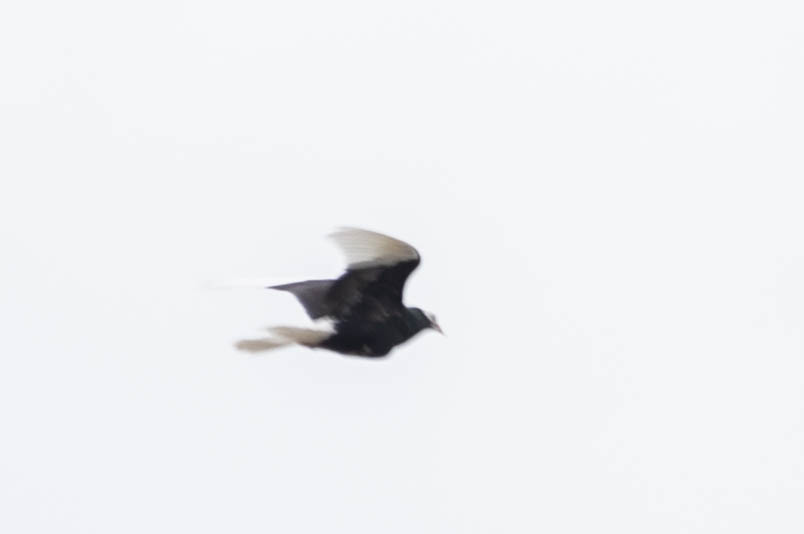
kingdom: Animalia
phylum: Chordata
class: Aves
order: Columbiformes
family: Columbidae
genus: Columba
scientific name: Columba livia
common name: Rock pigeon
